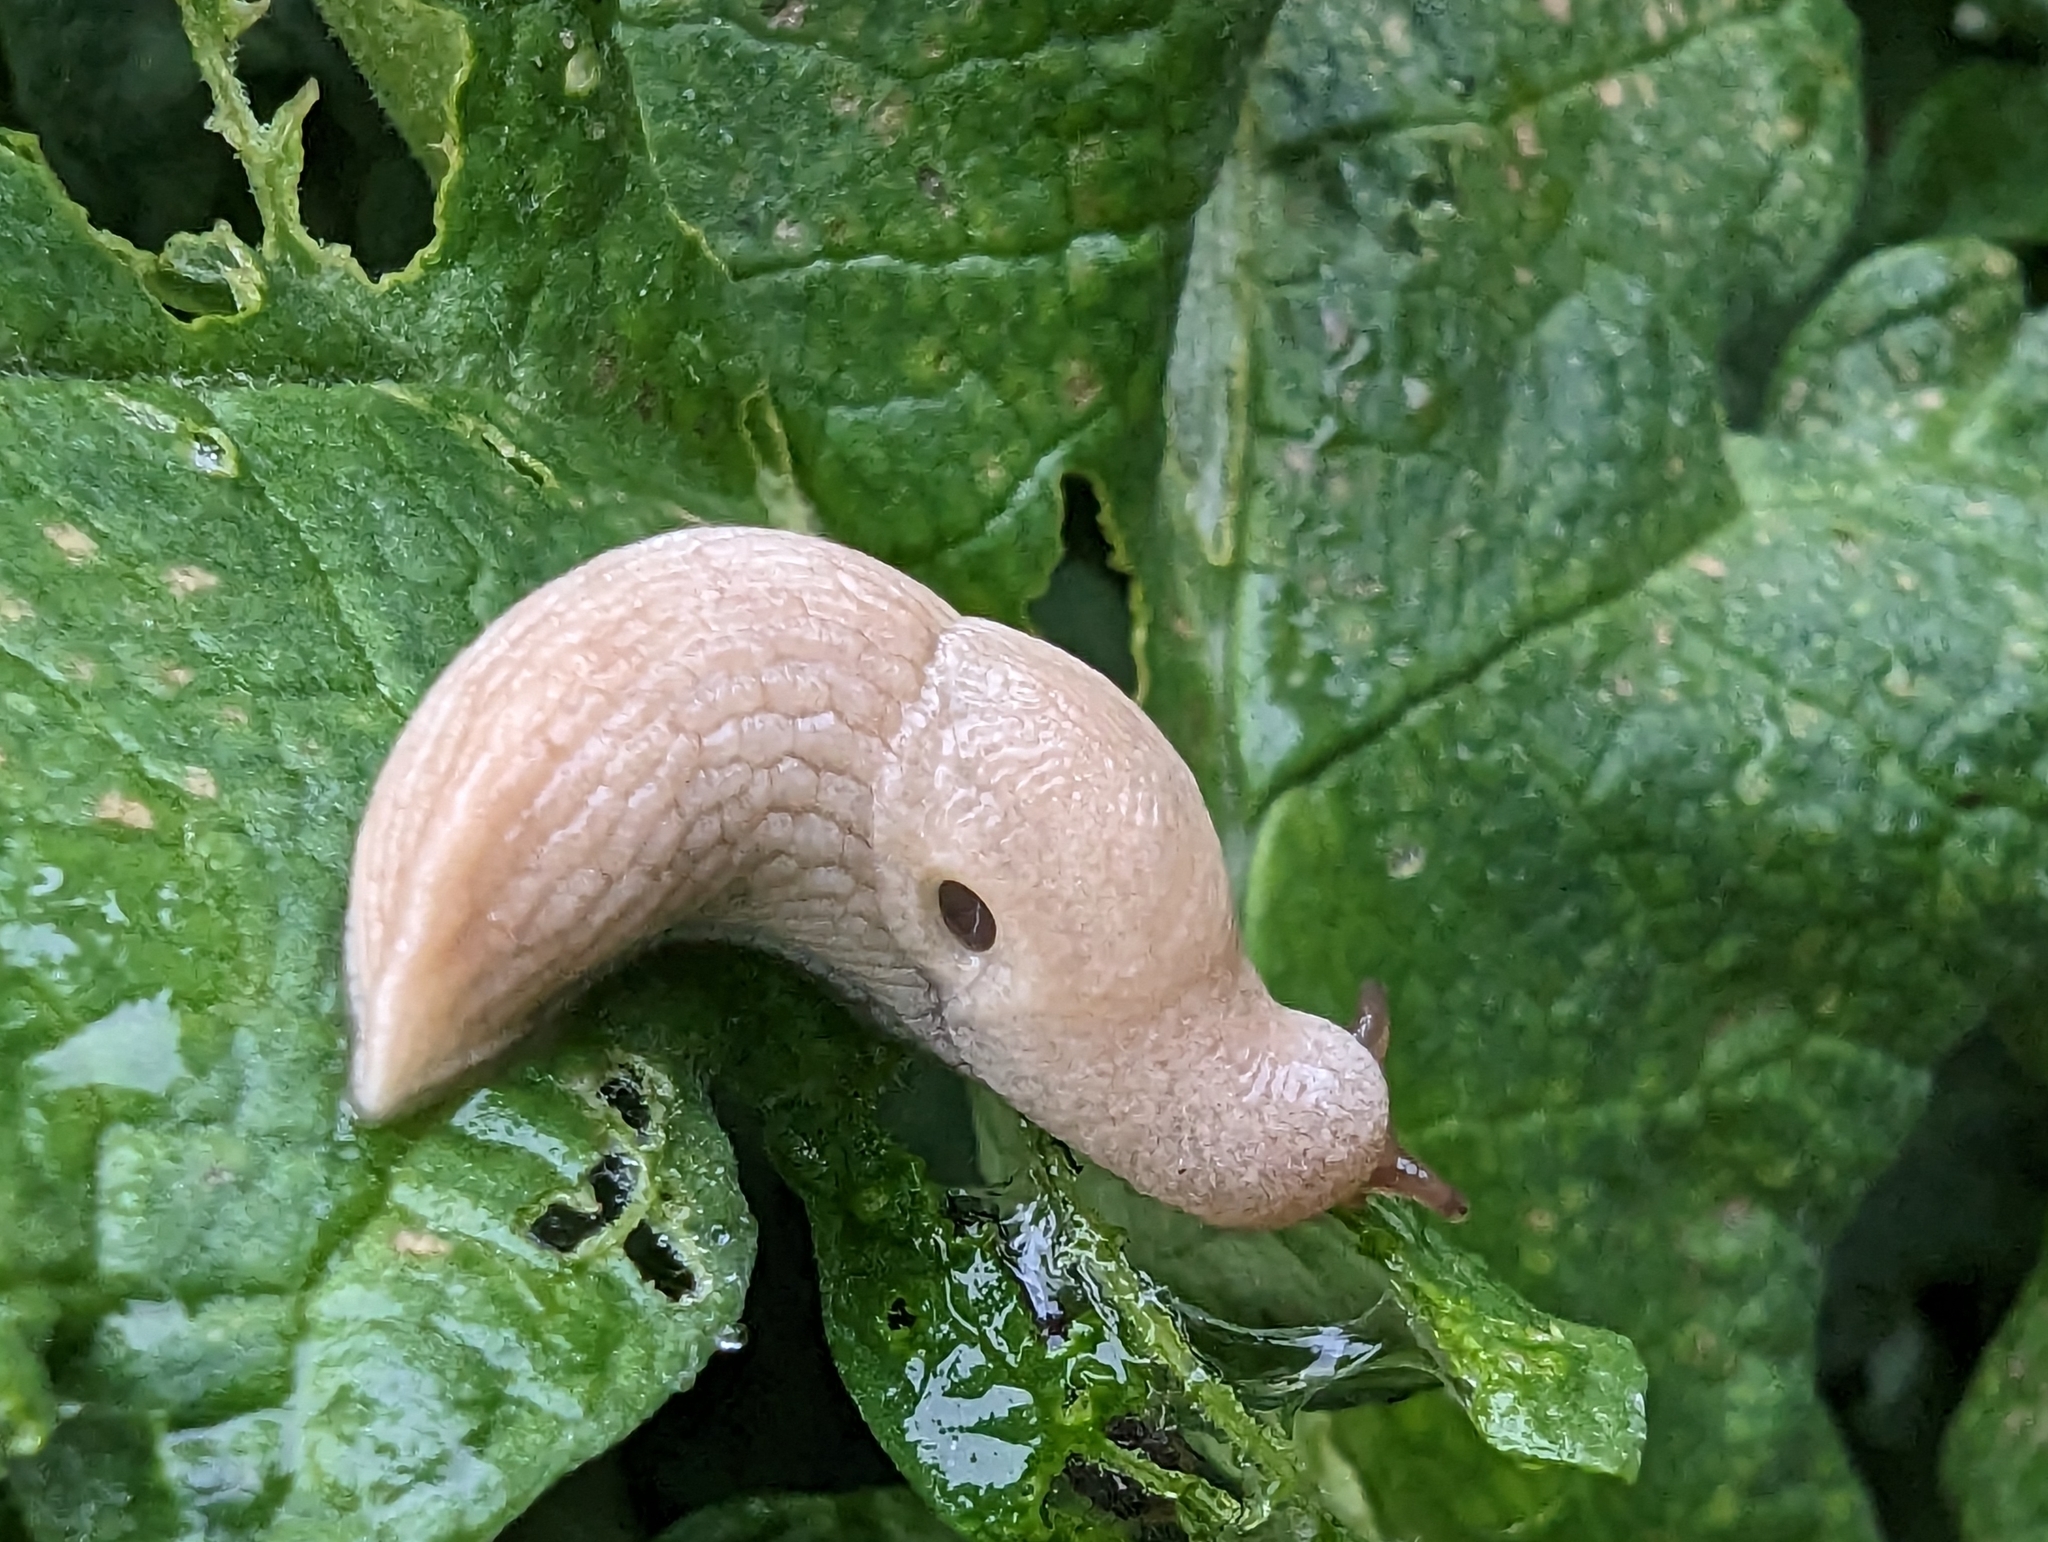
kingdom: Animalia
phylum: Mollusca
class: Gastropoda
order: Stylommatophora
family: Agriolimacidae
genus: Deroceras
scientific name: Deroceras reticulatum
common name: Gray field slug
